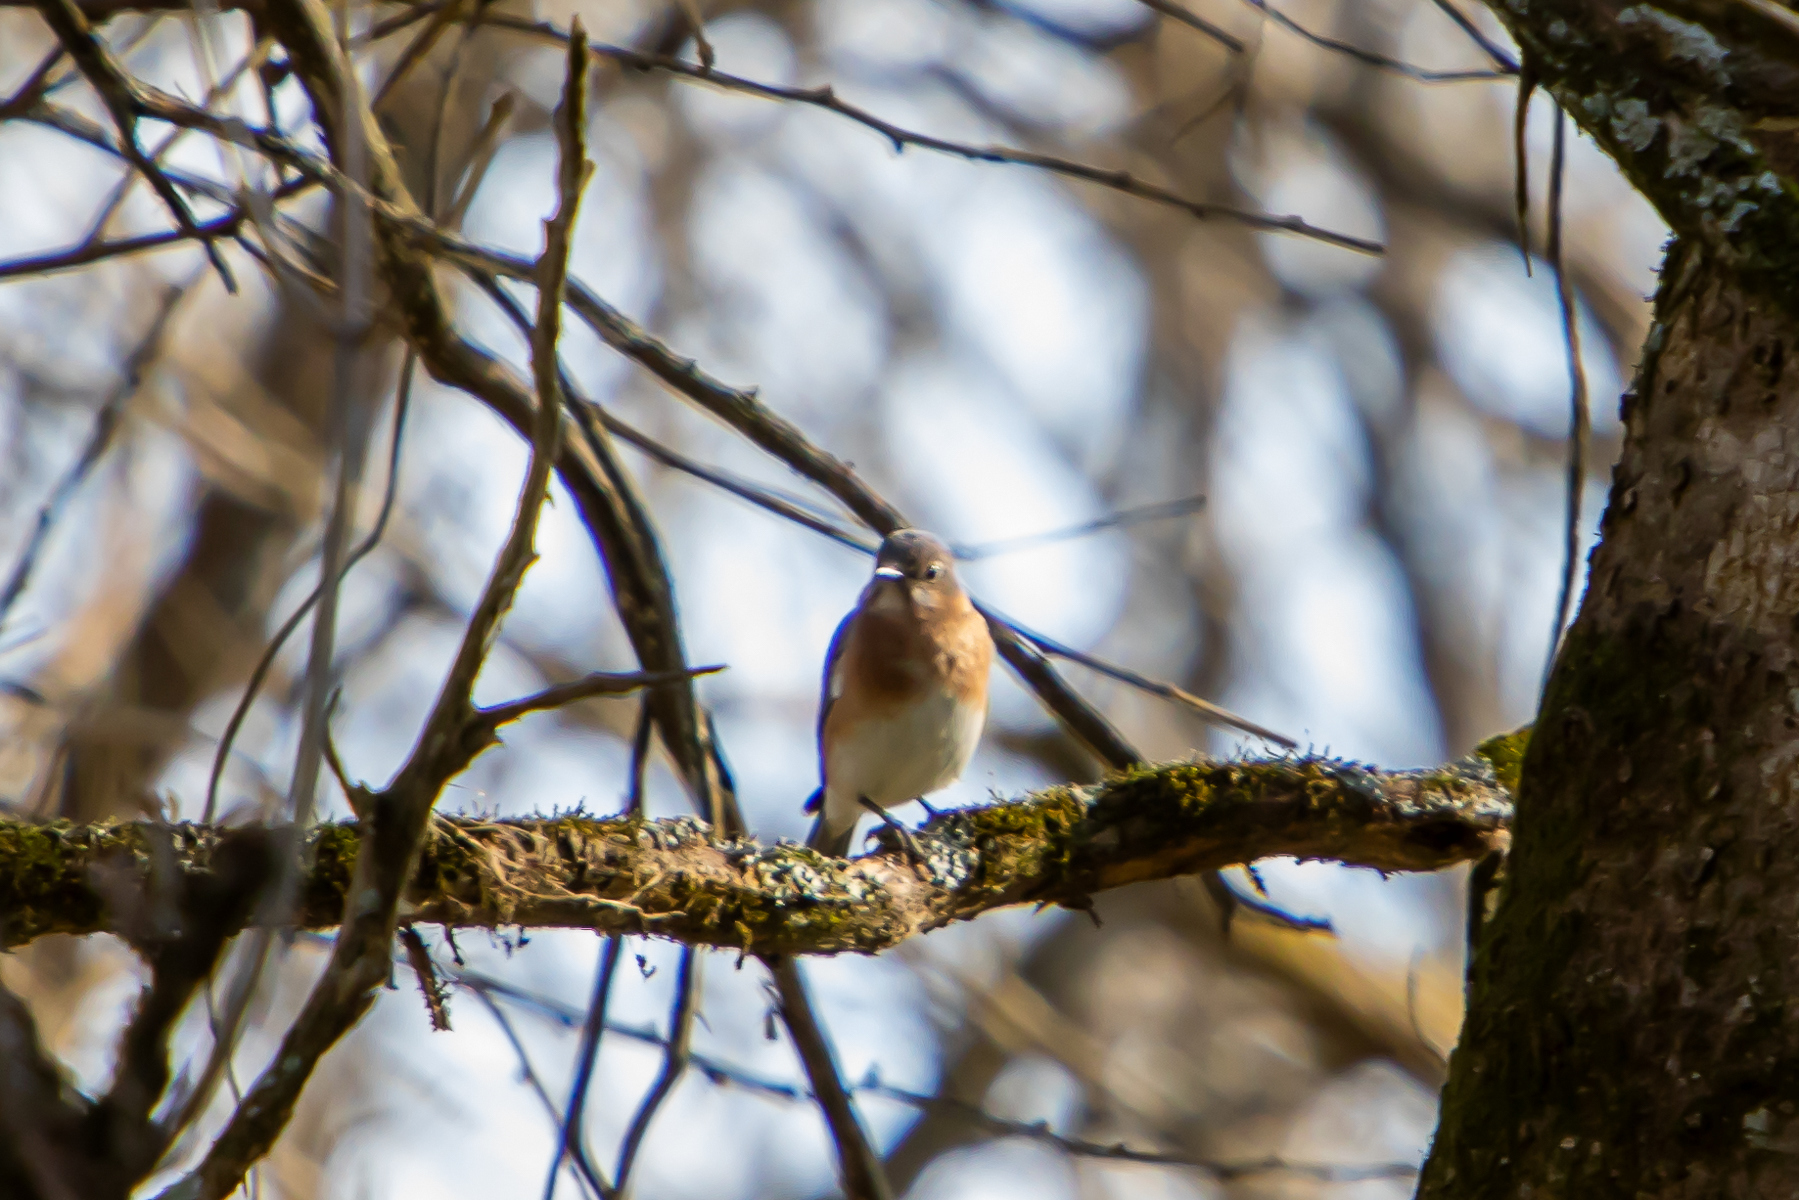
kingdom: Animalia
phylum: Chordata
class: Aves
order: Passeriformes
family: Turdidae
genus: Sialia
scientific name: Sialia sialis
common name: Eastern bluebird
